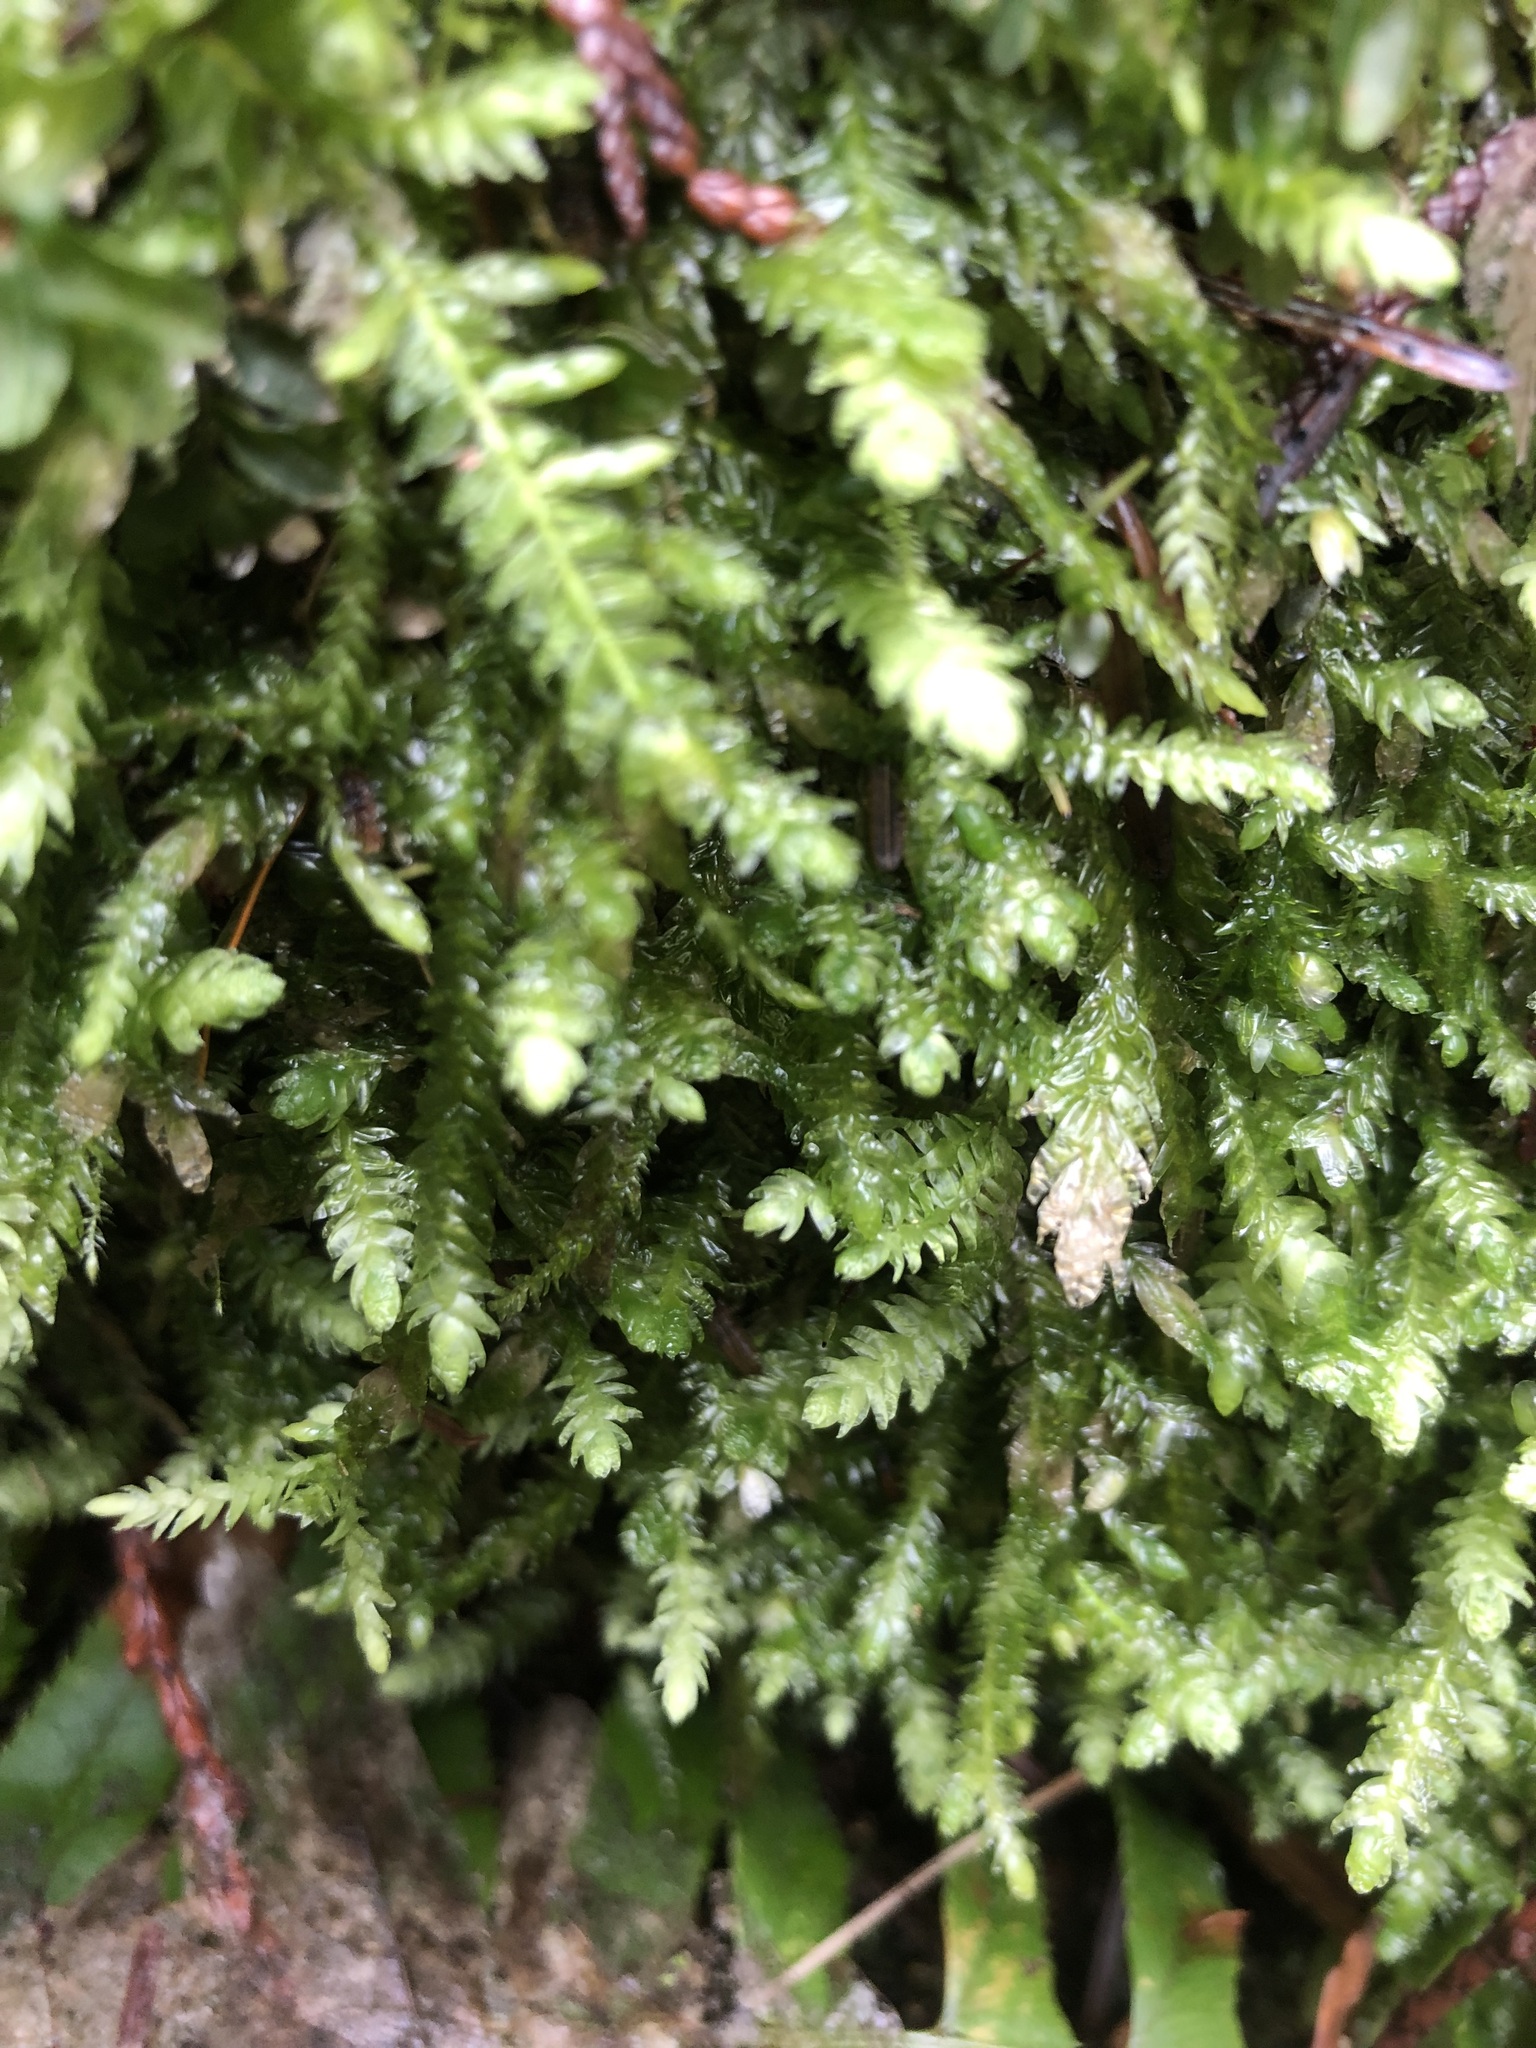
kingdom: Plantae
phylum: Bryophyta
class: Bryopsida
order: Hypnales
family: Plagiotheciaceae
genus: Plagiothecium
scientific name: Plagiothecium undulatum
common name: Waved silk-moss
